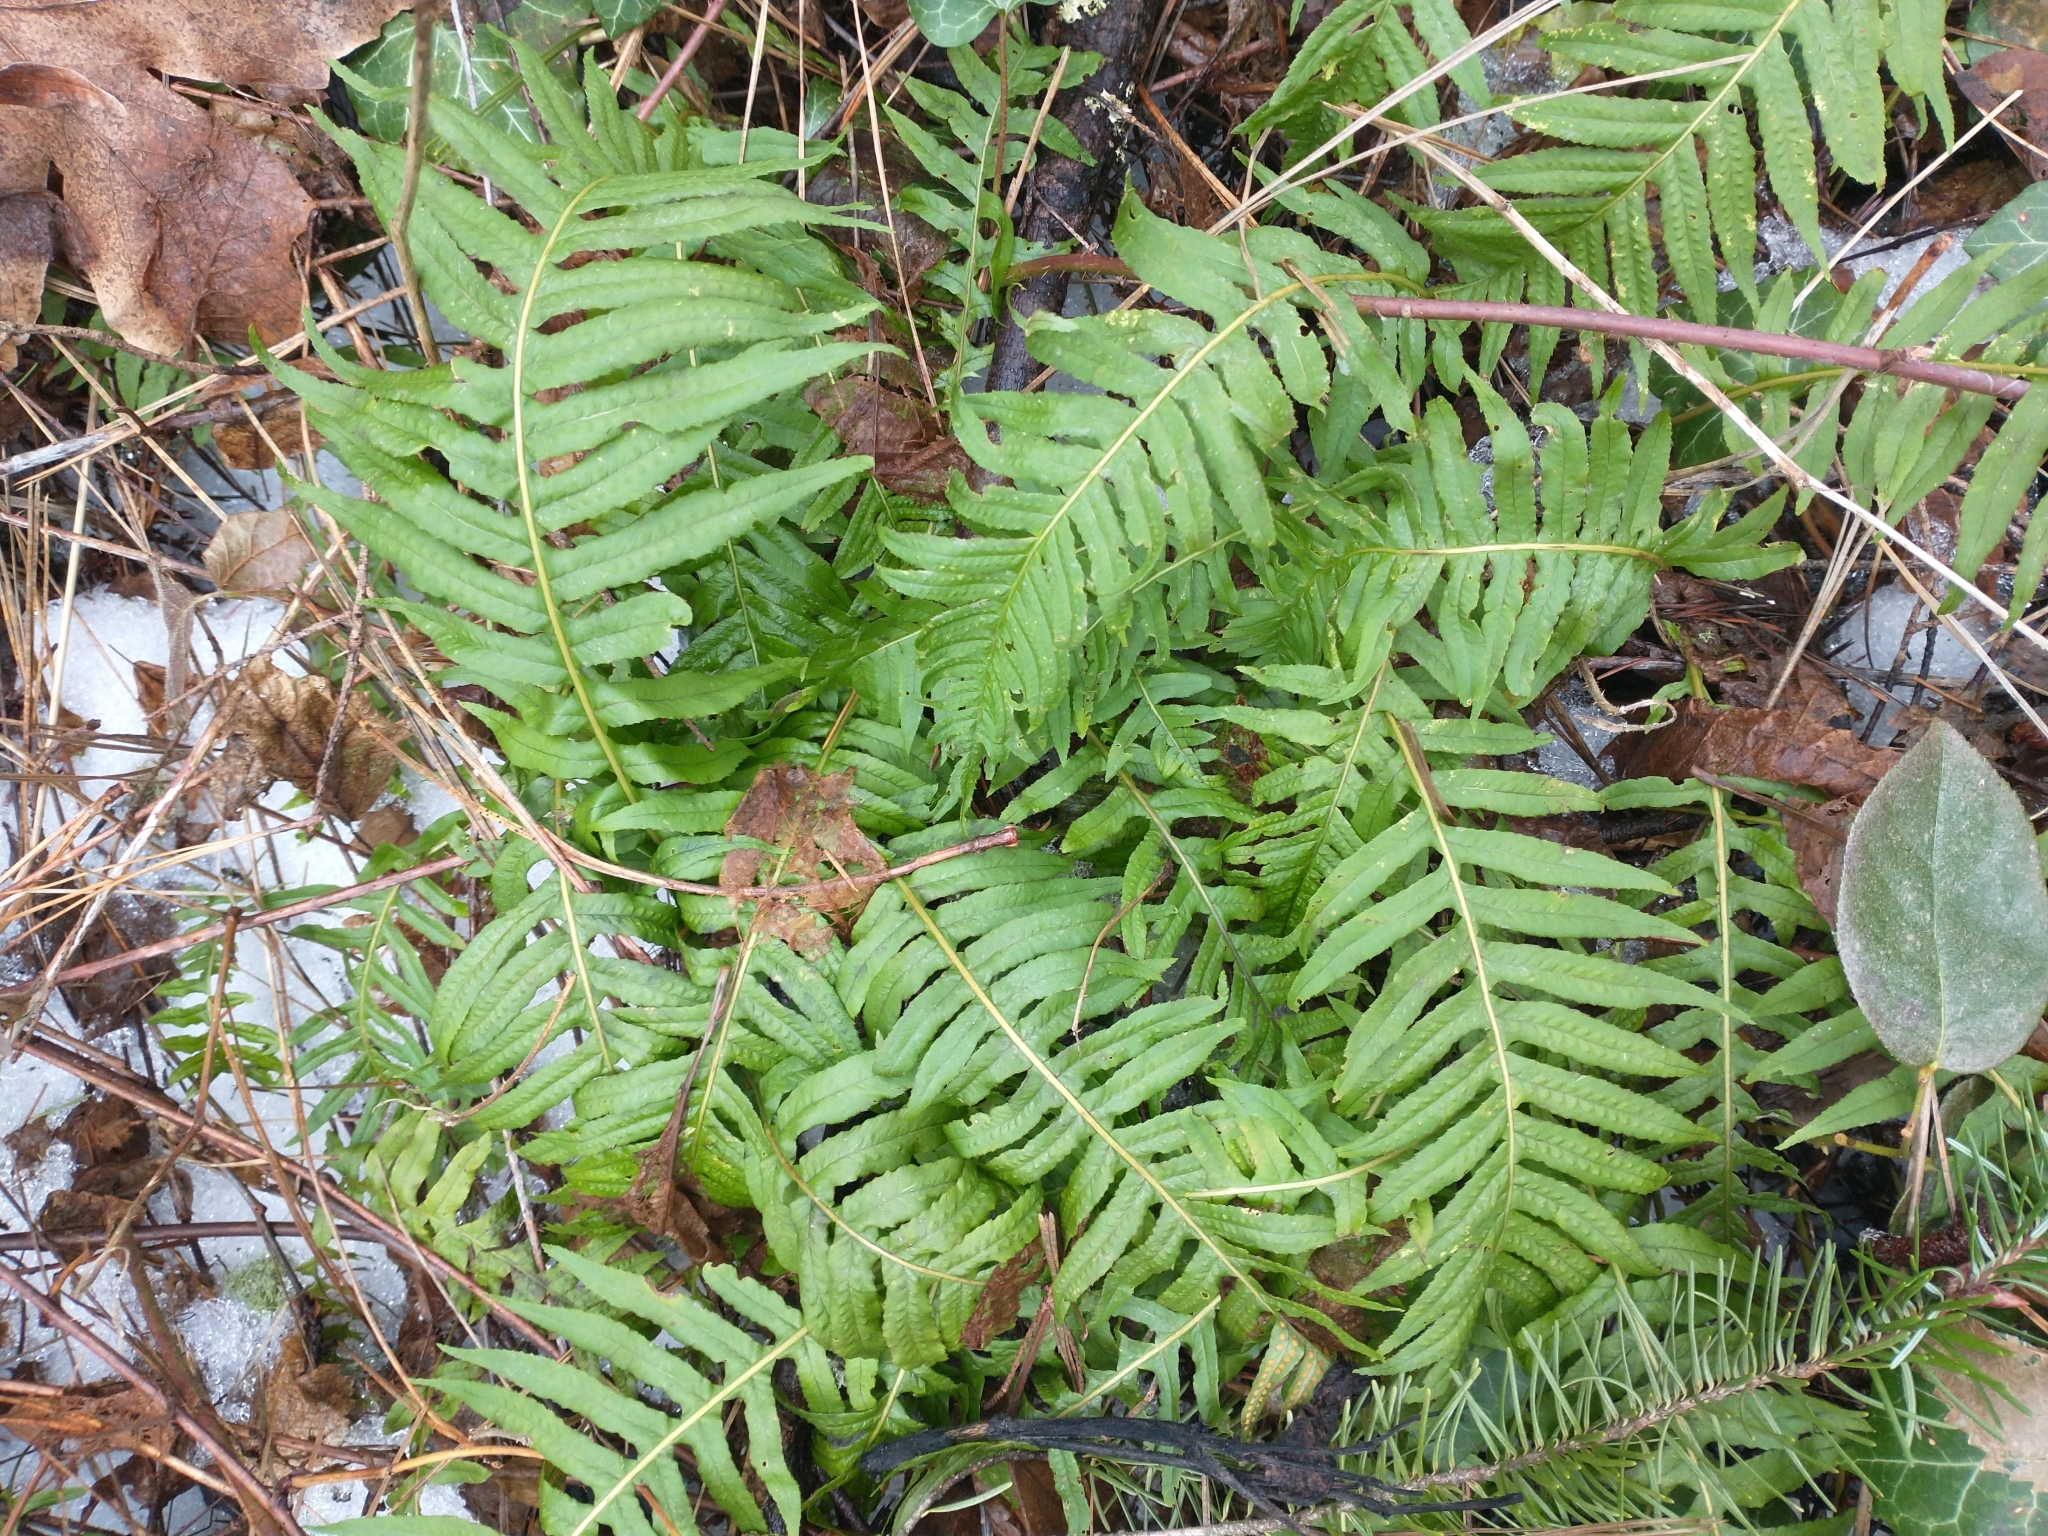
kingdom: Plantae
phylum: Tracheophyta
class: Polypodiopsida
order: Polypodiales
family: Polypodiaceae
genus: Polypodium
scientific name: Polypodium glycyrrhiza
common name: Licorice fern
